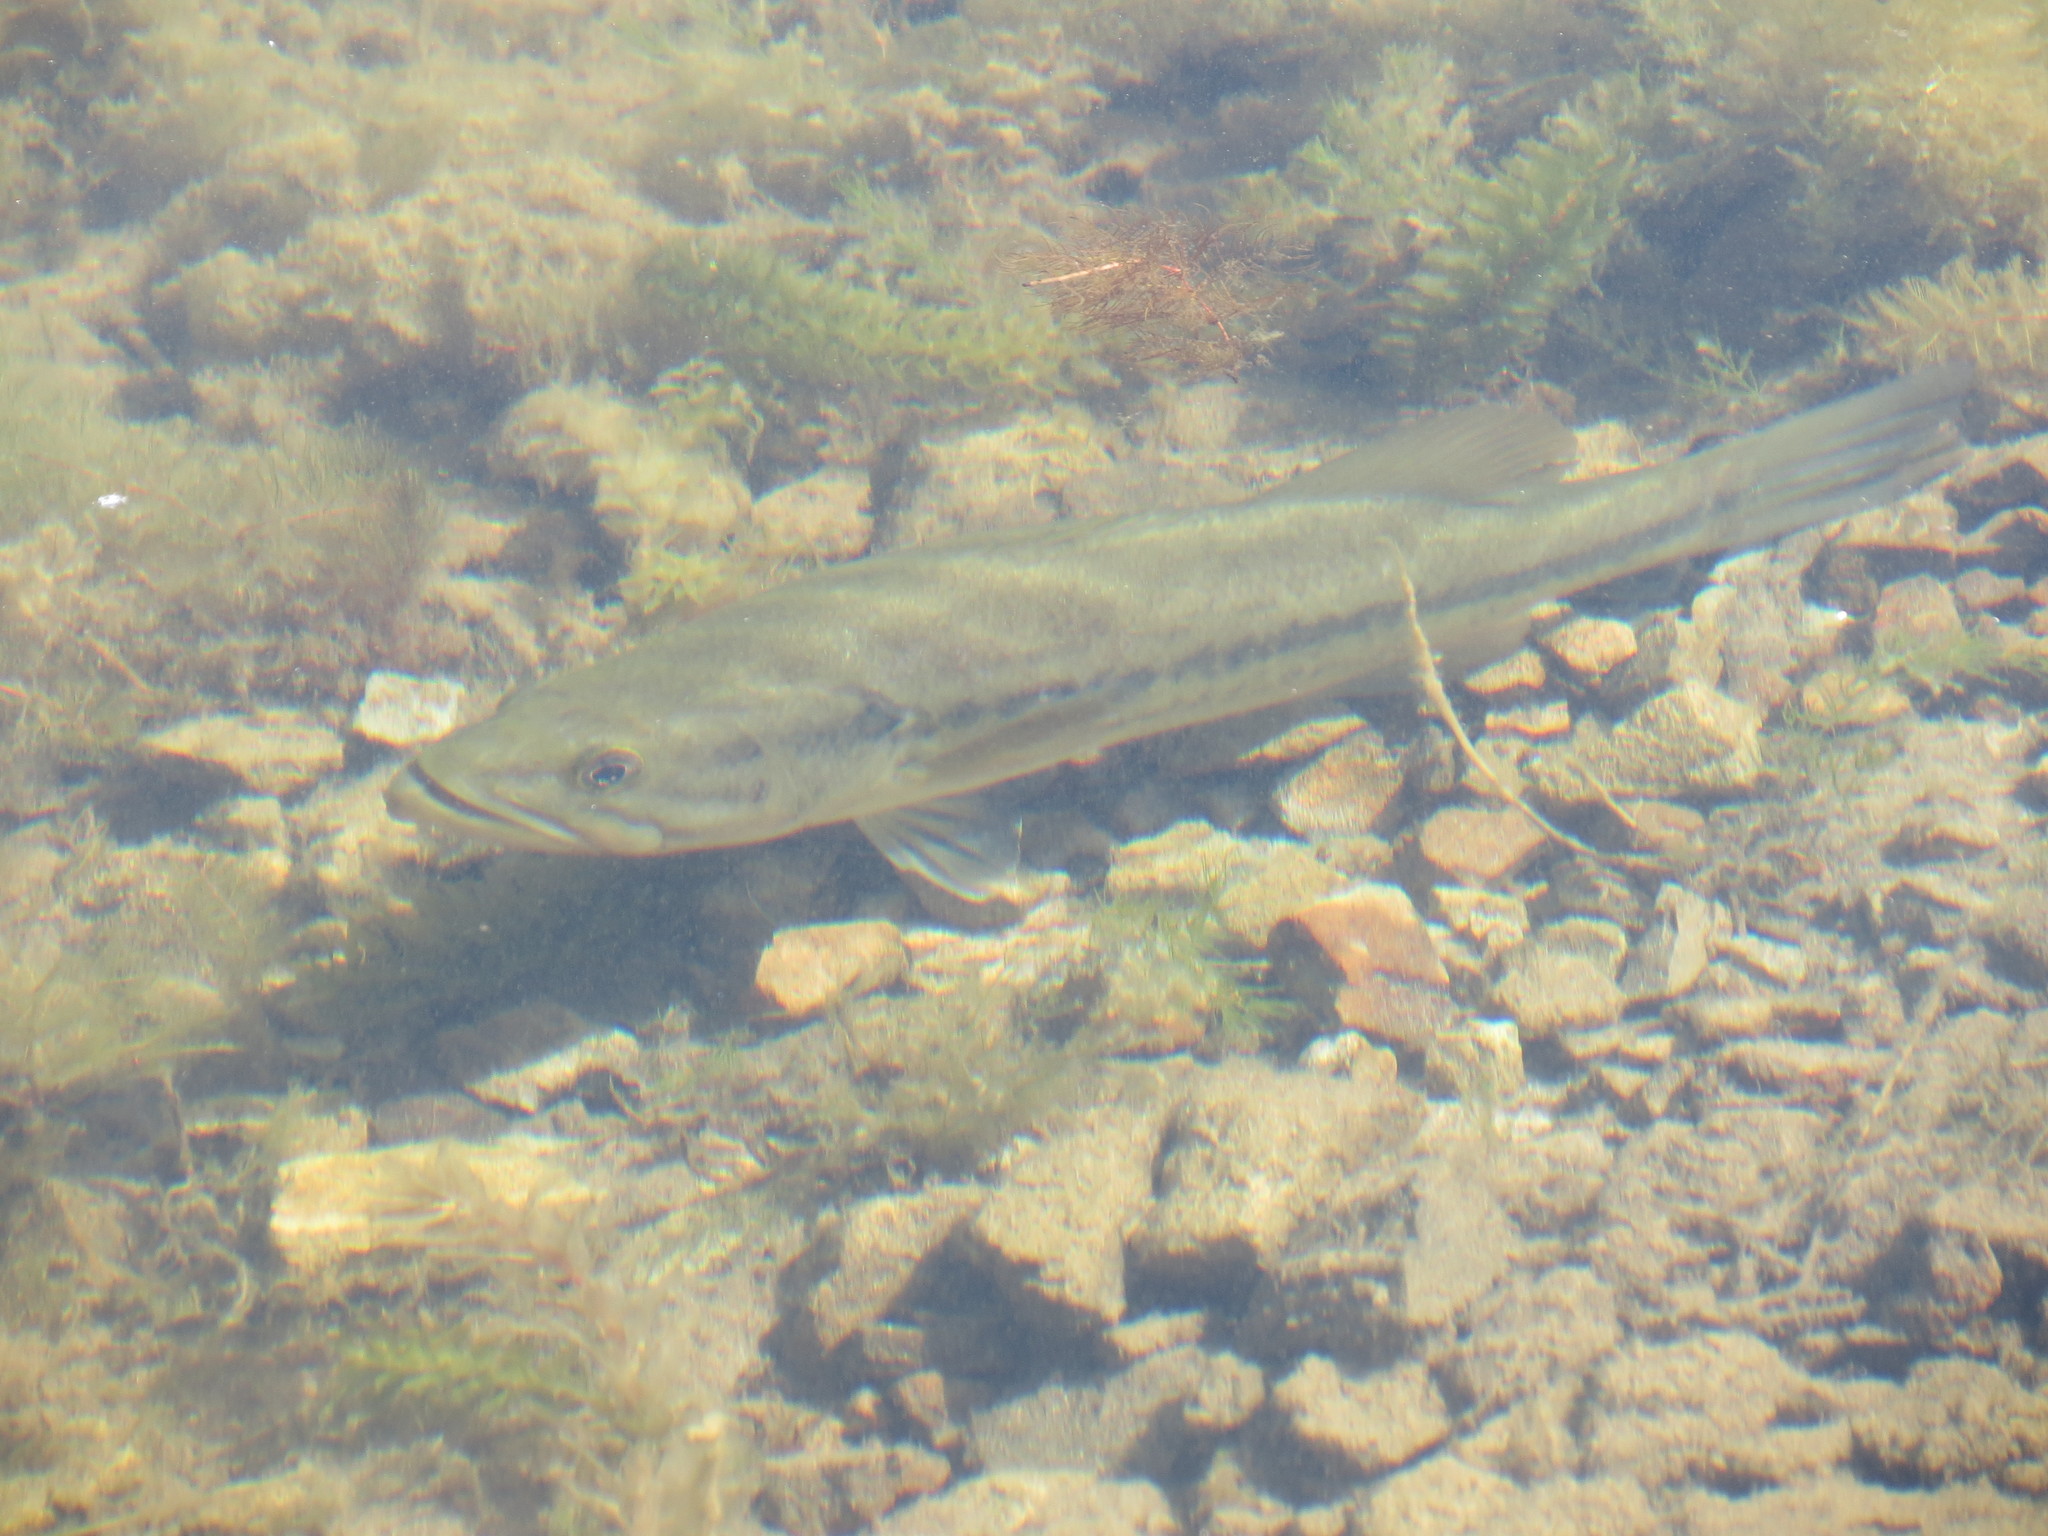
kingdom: Animalia
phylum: Chordata
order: Perciformes
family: Centrarchidae
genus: Micropterus
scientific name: Micropterus
